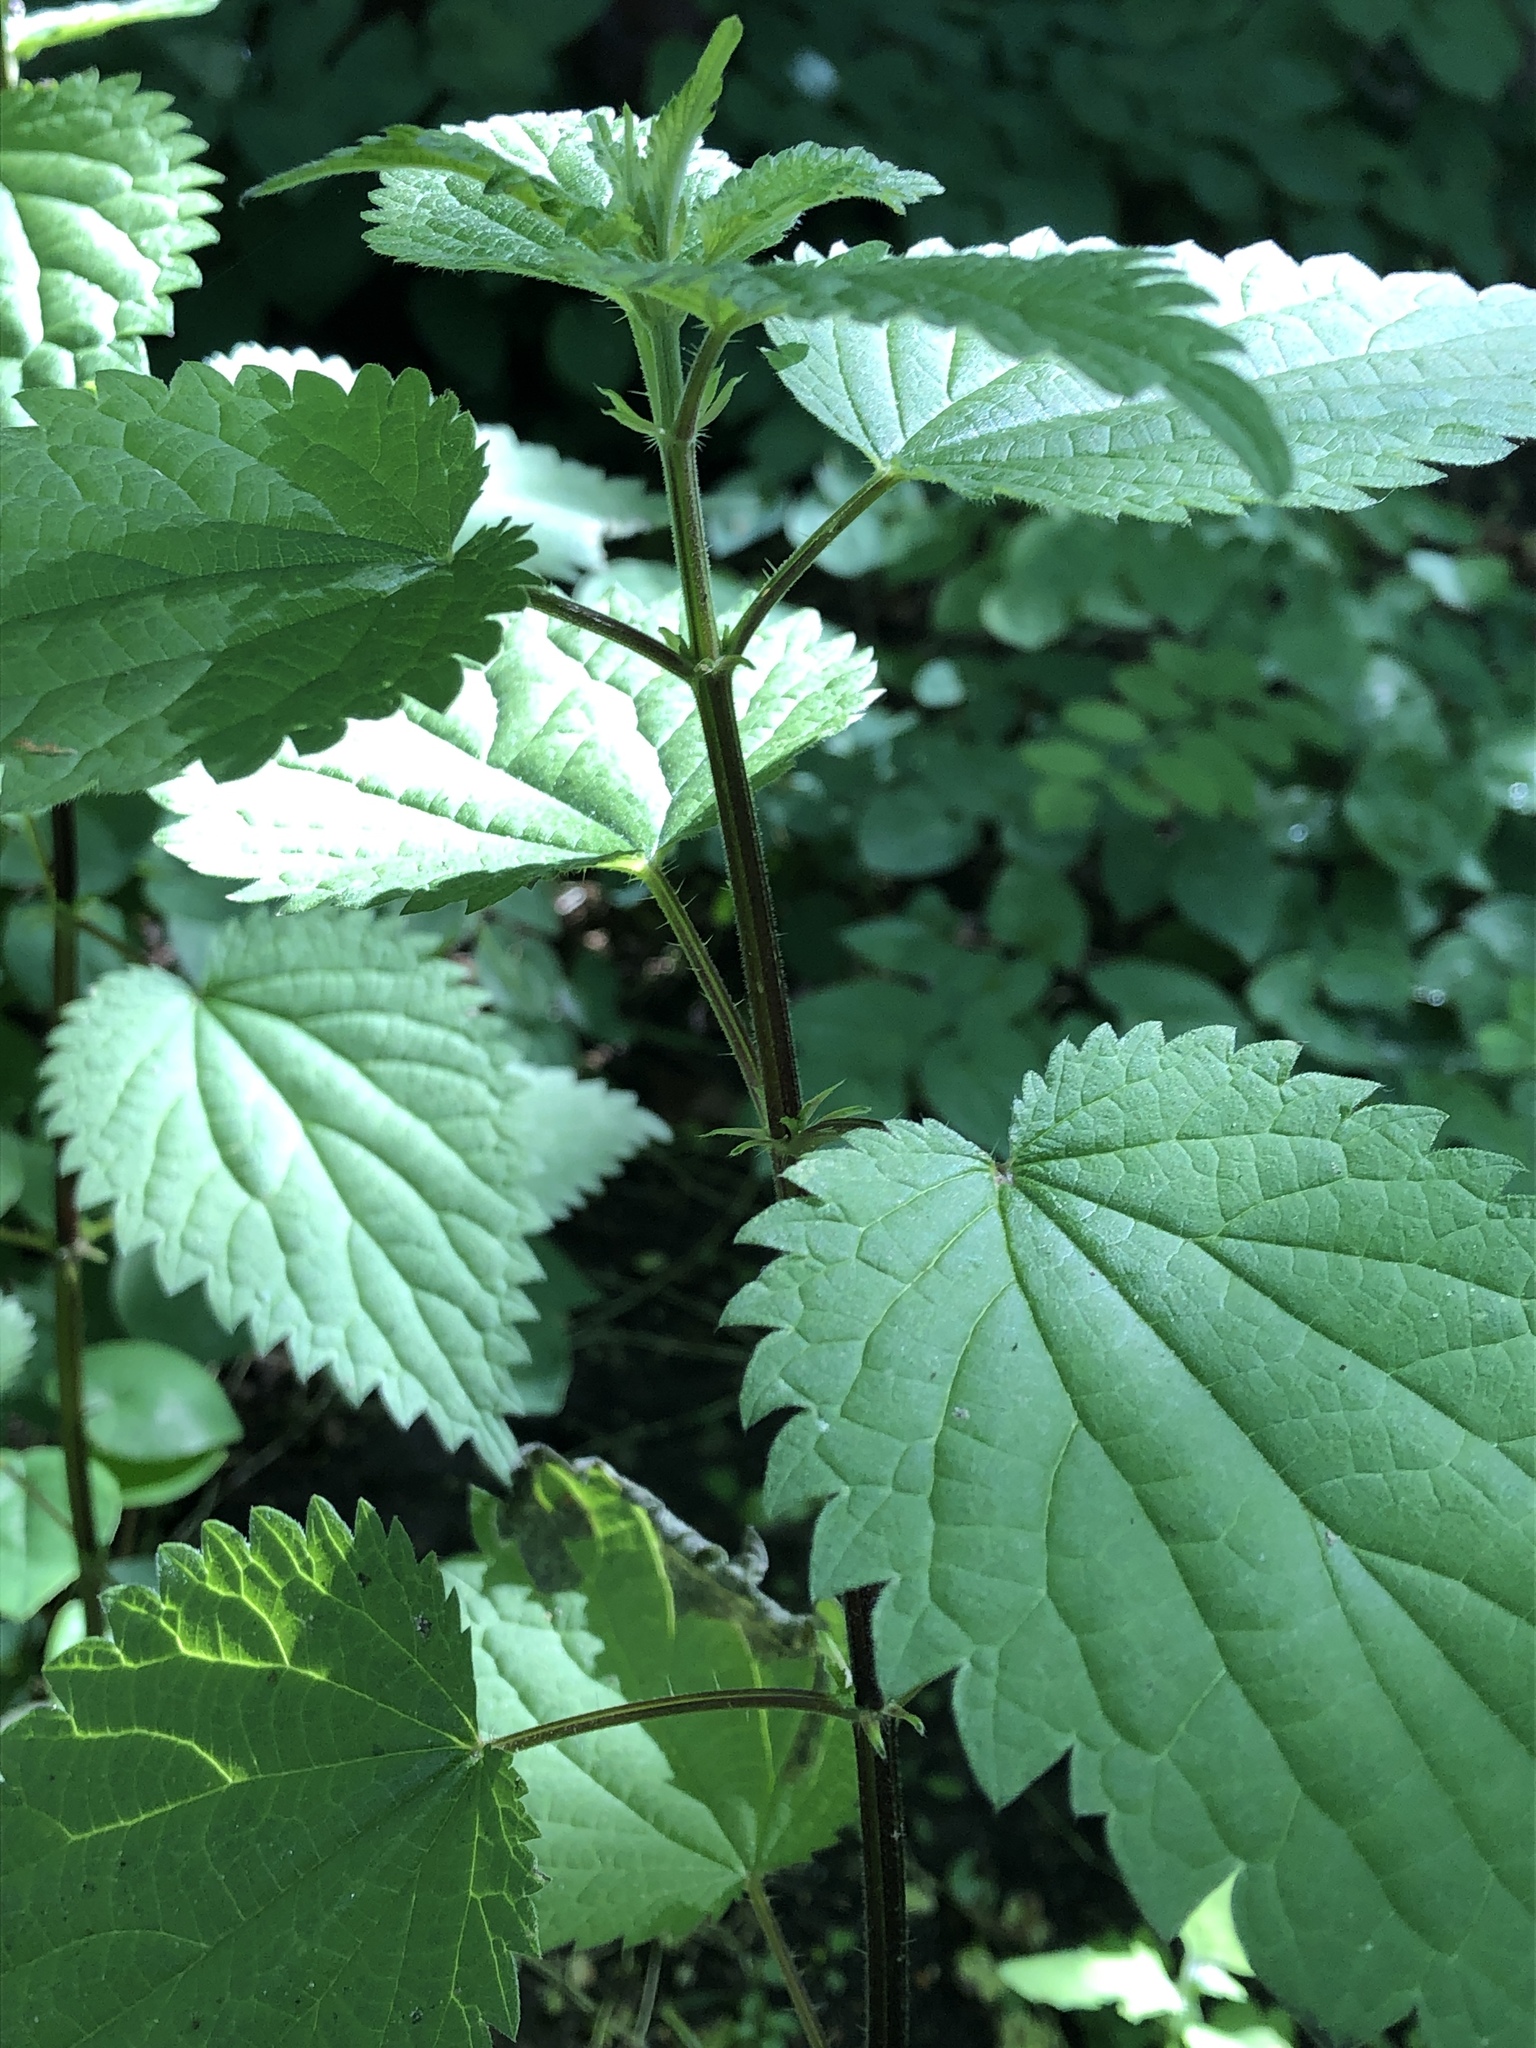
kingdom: Plantae
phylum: Tracheophyta
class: Magnoliopsida
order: Rosales
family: Urticaceae
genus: Urtica
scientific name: Urtica dioica
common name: Common nettle
